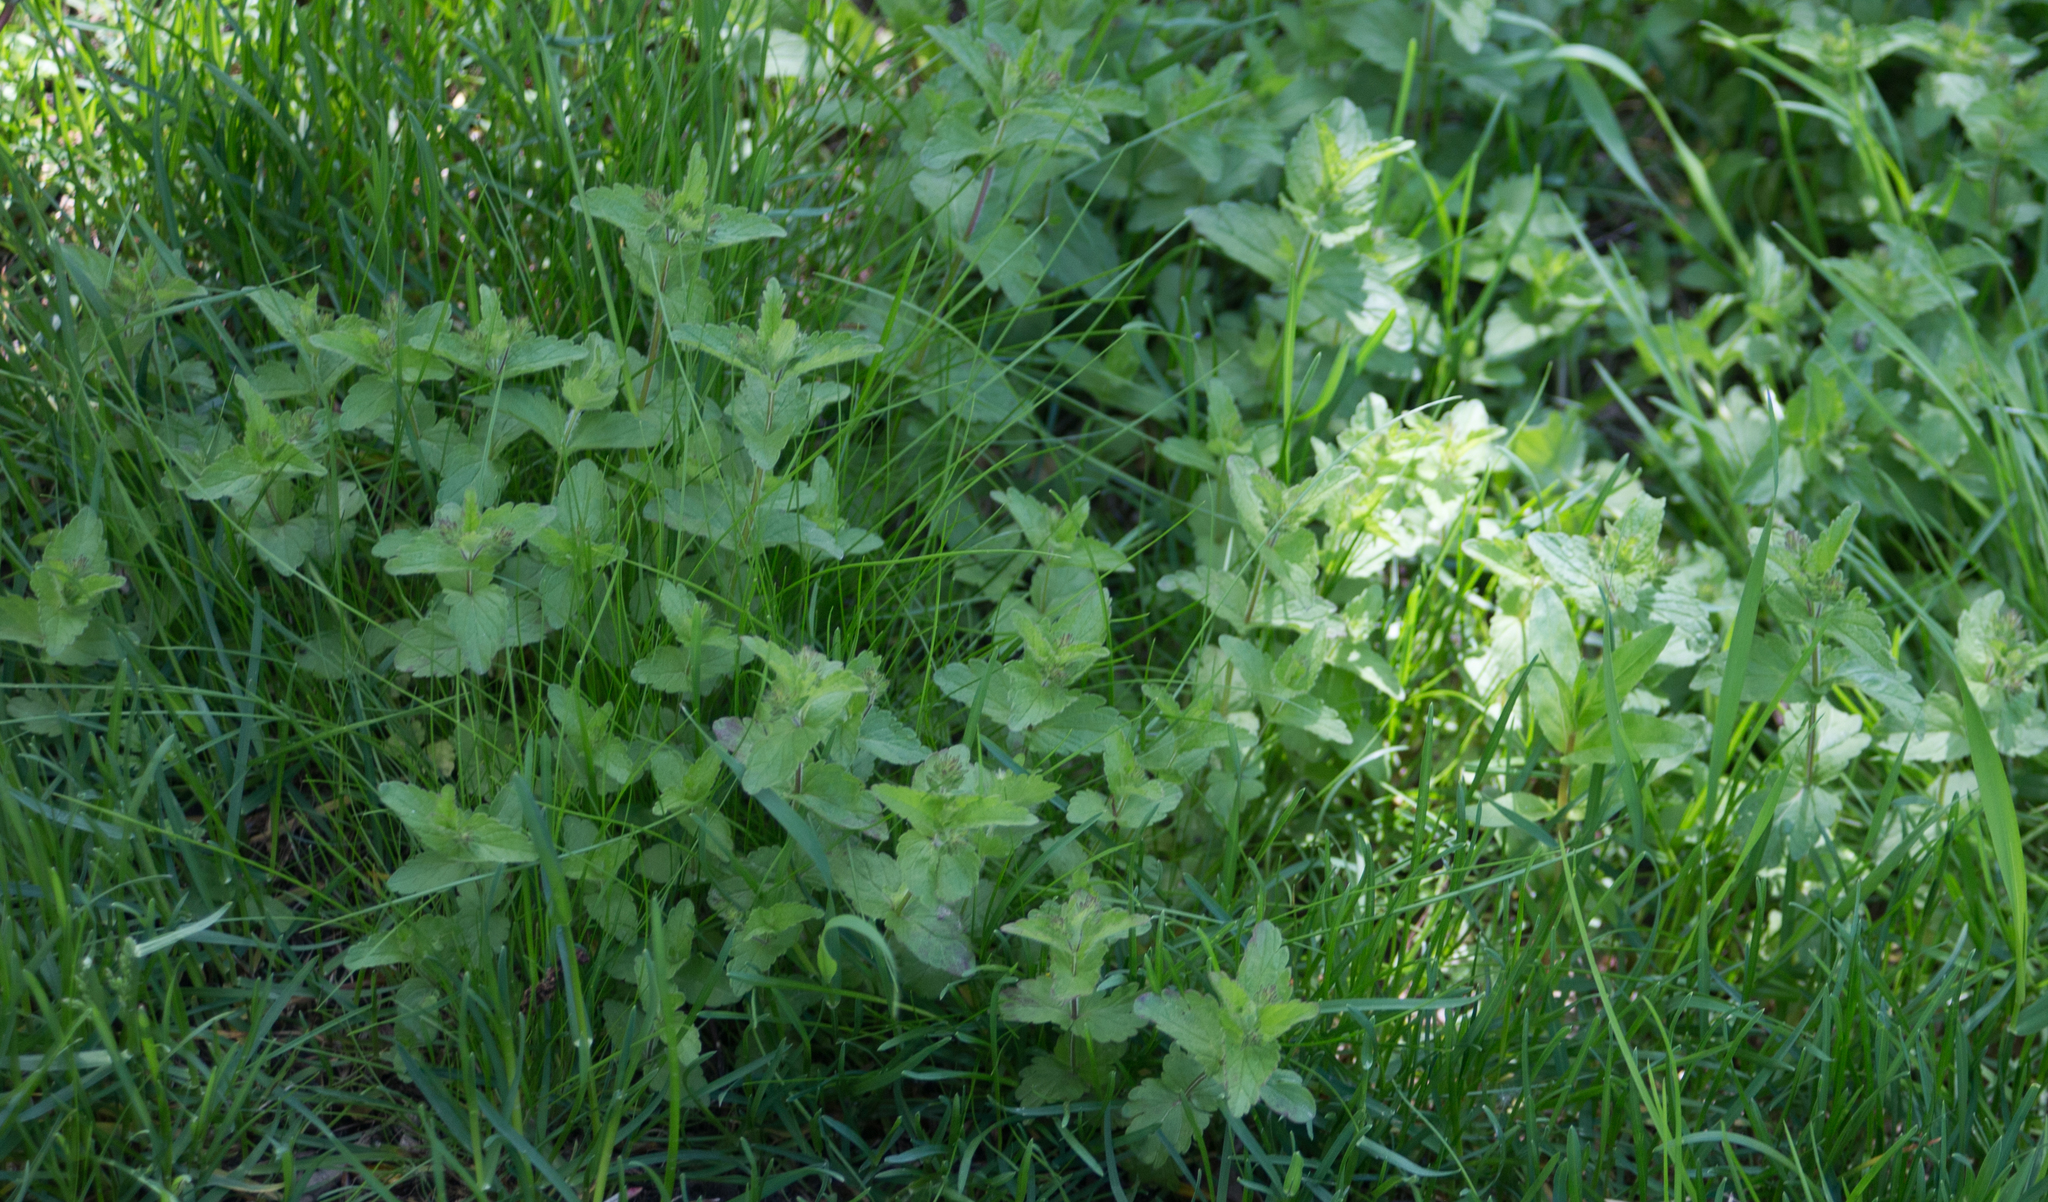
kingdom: Plantae
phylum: Tracheophyta
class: Magnoliopsida
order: Lamiales
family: Plantaginaceae
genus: Veronica
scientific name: Veronica chamaedrys
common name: Germander speedwell
